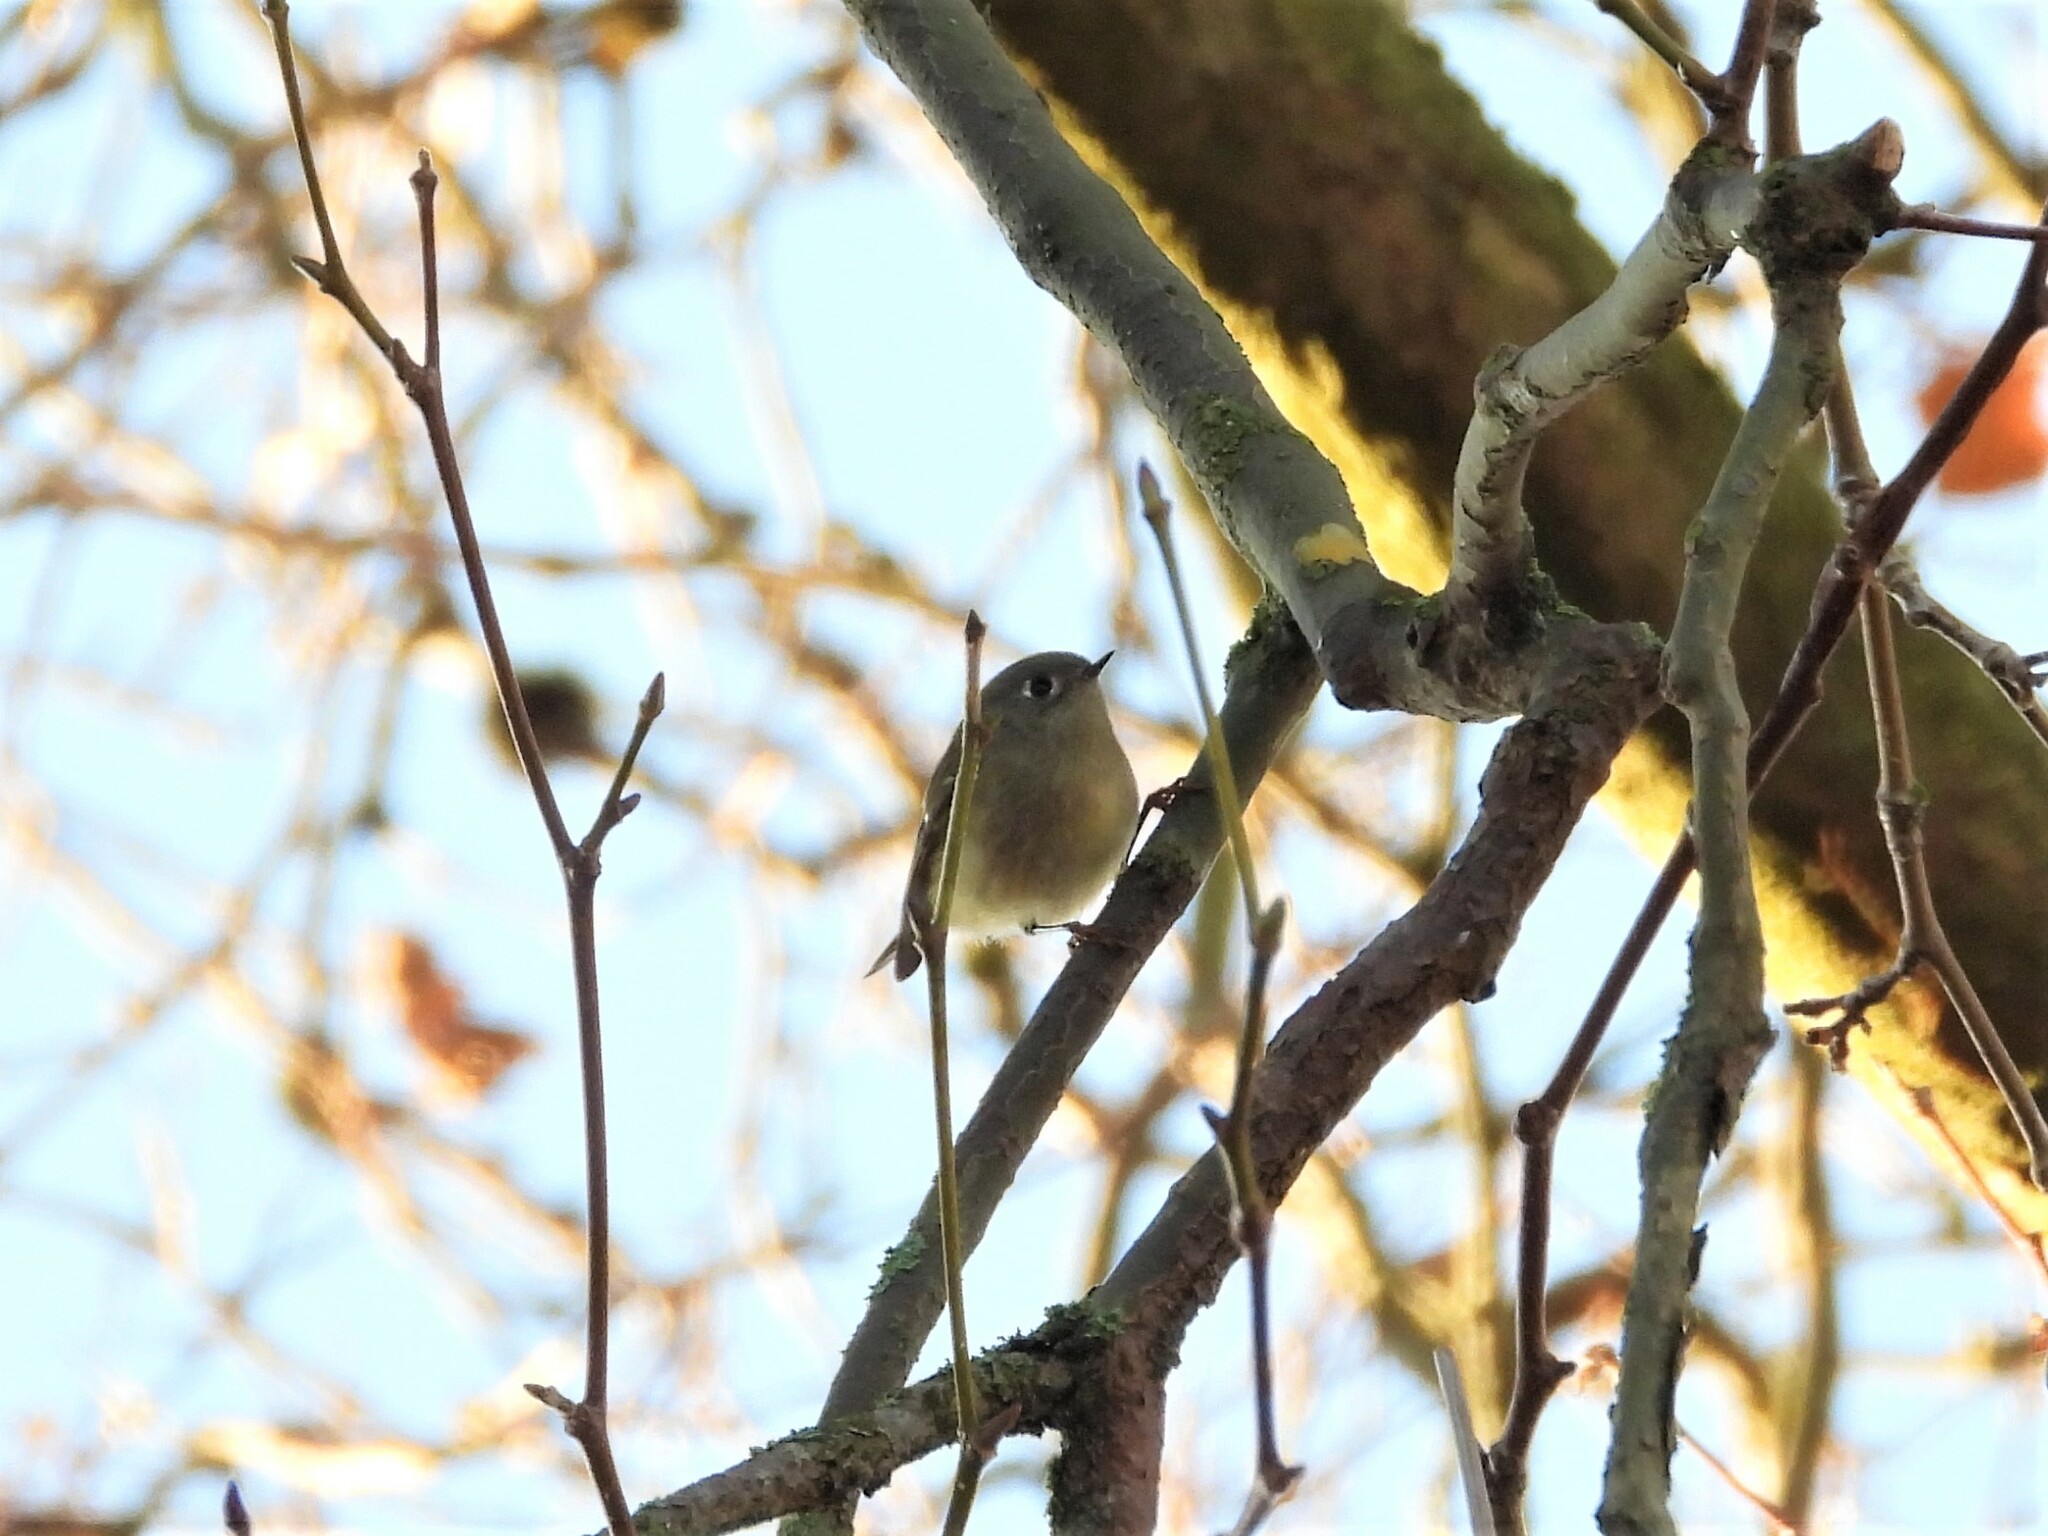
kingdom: Animalia
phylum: Chordata
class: Aves
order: Passeriformes
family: Regulidae
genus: Regulus
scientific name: Regulus calendula
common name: Ruby-crowned kinglet
